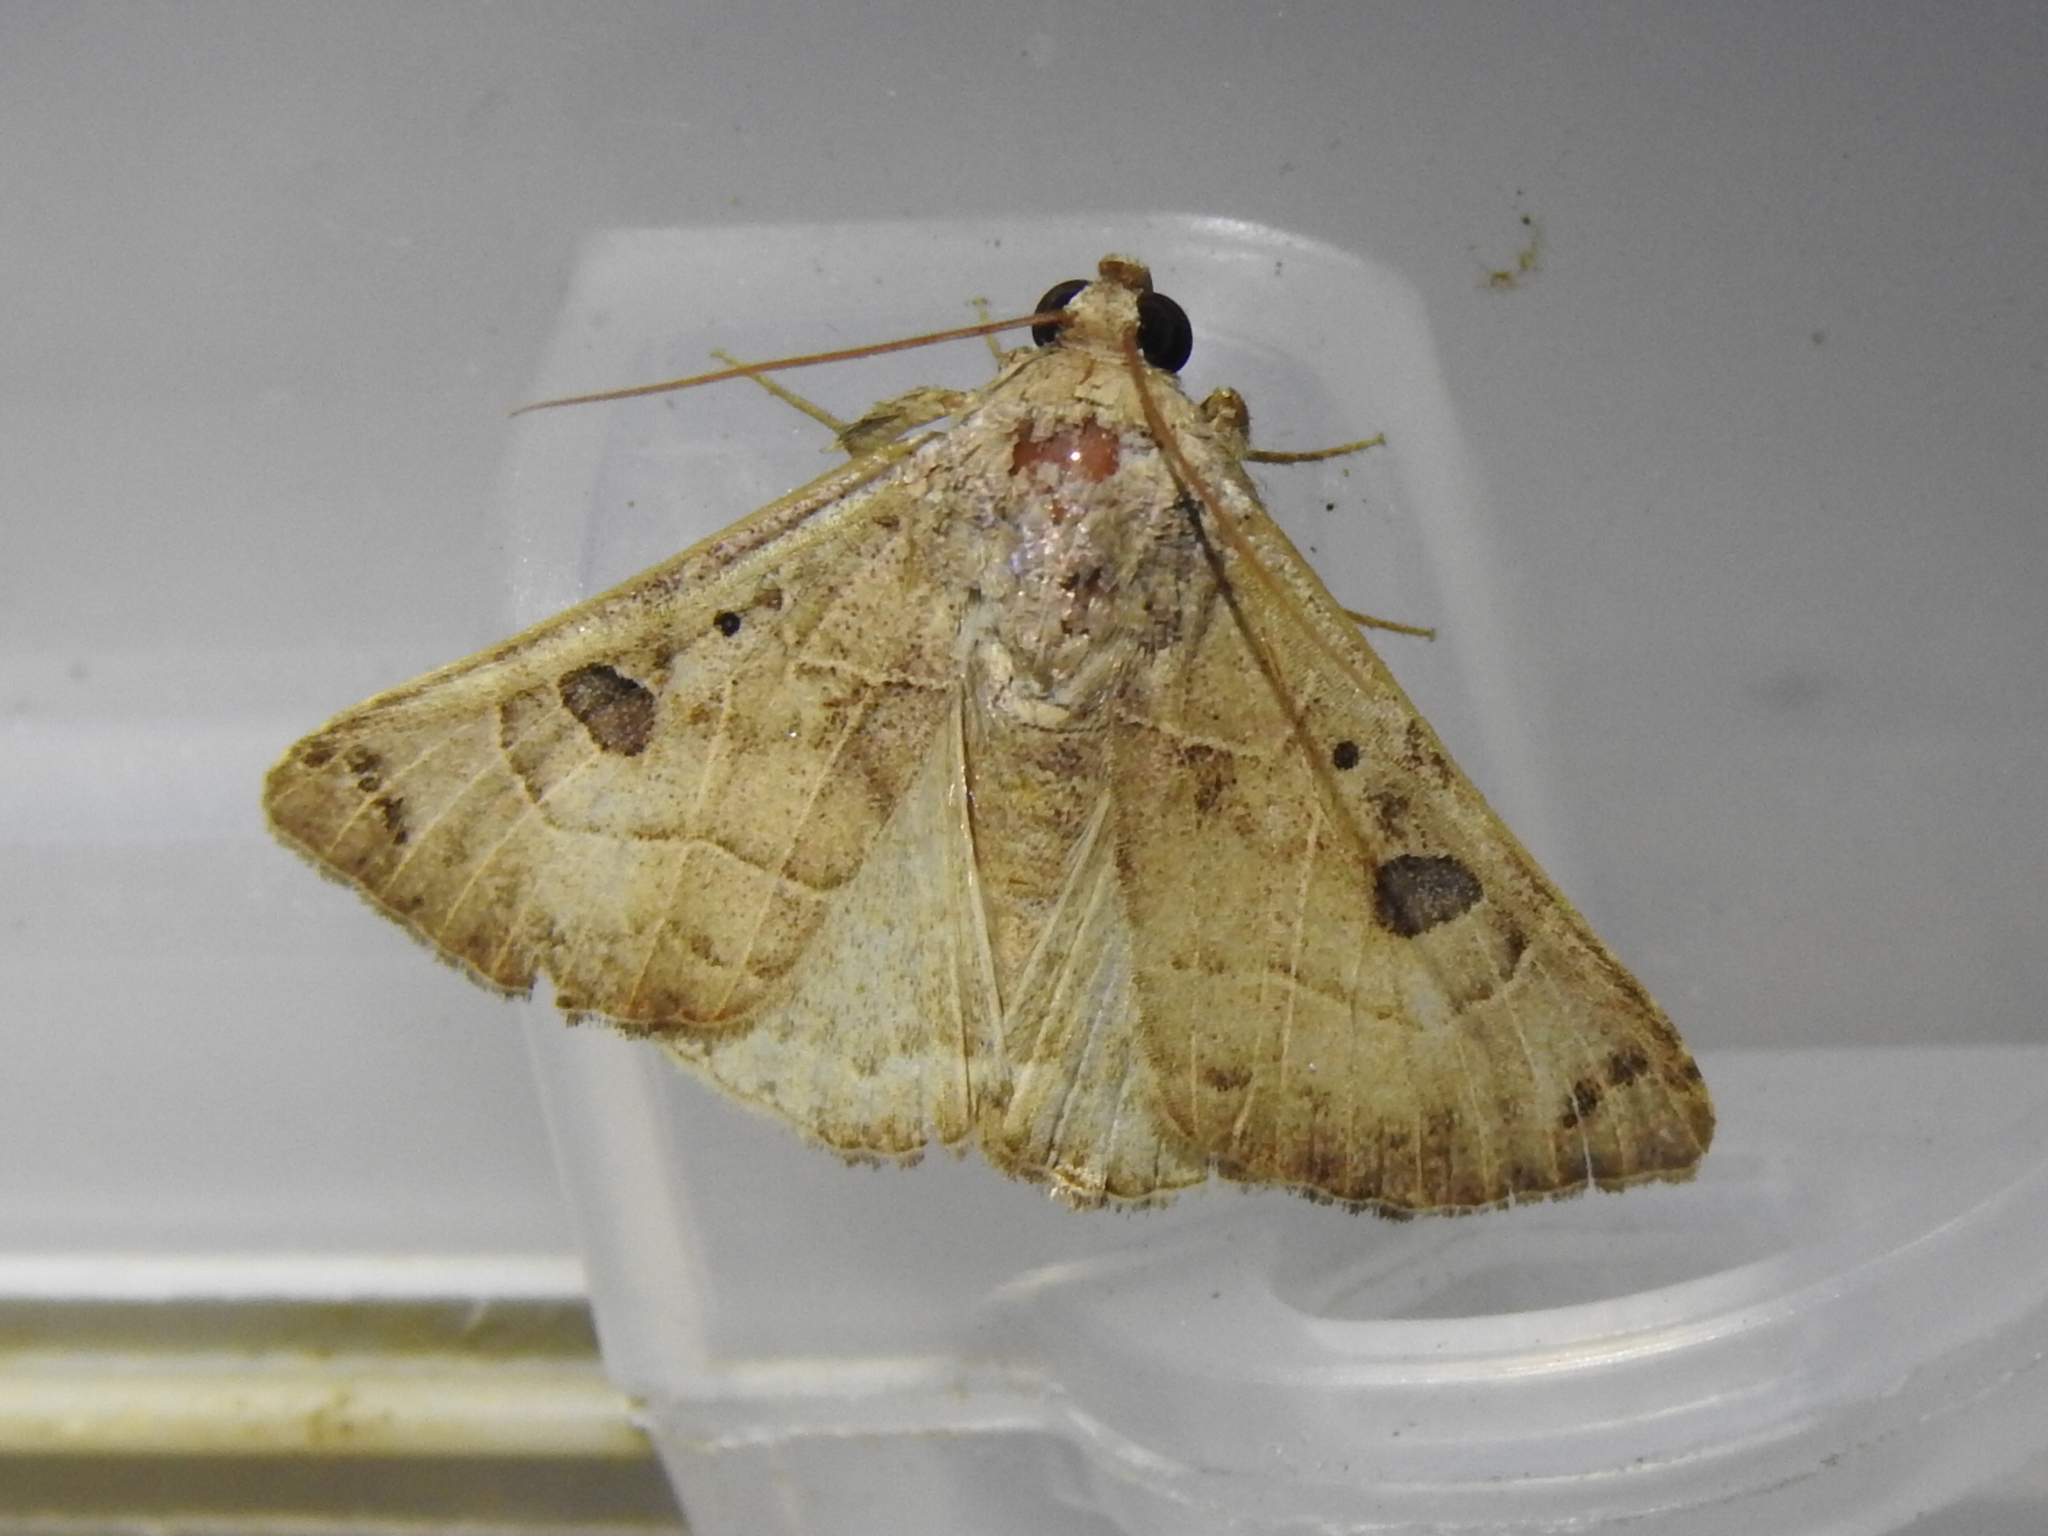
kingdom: Animalia
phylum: Arthropoda
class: Insecta
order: Lepidoptera
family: Erebidae
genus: Isogona
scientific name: Isogona scindens
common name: Owlet moth
